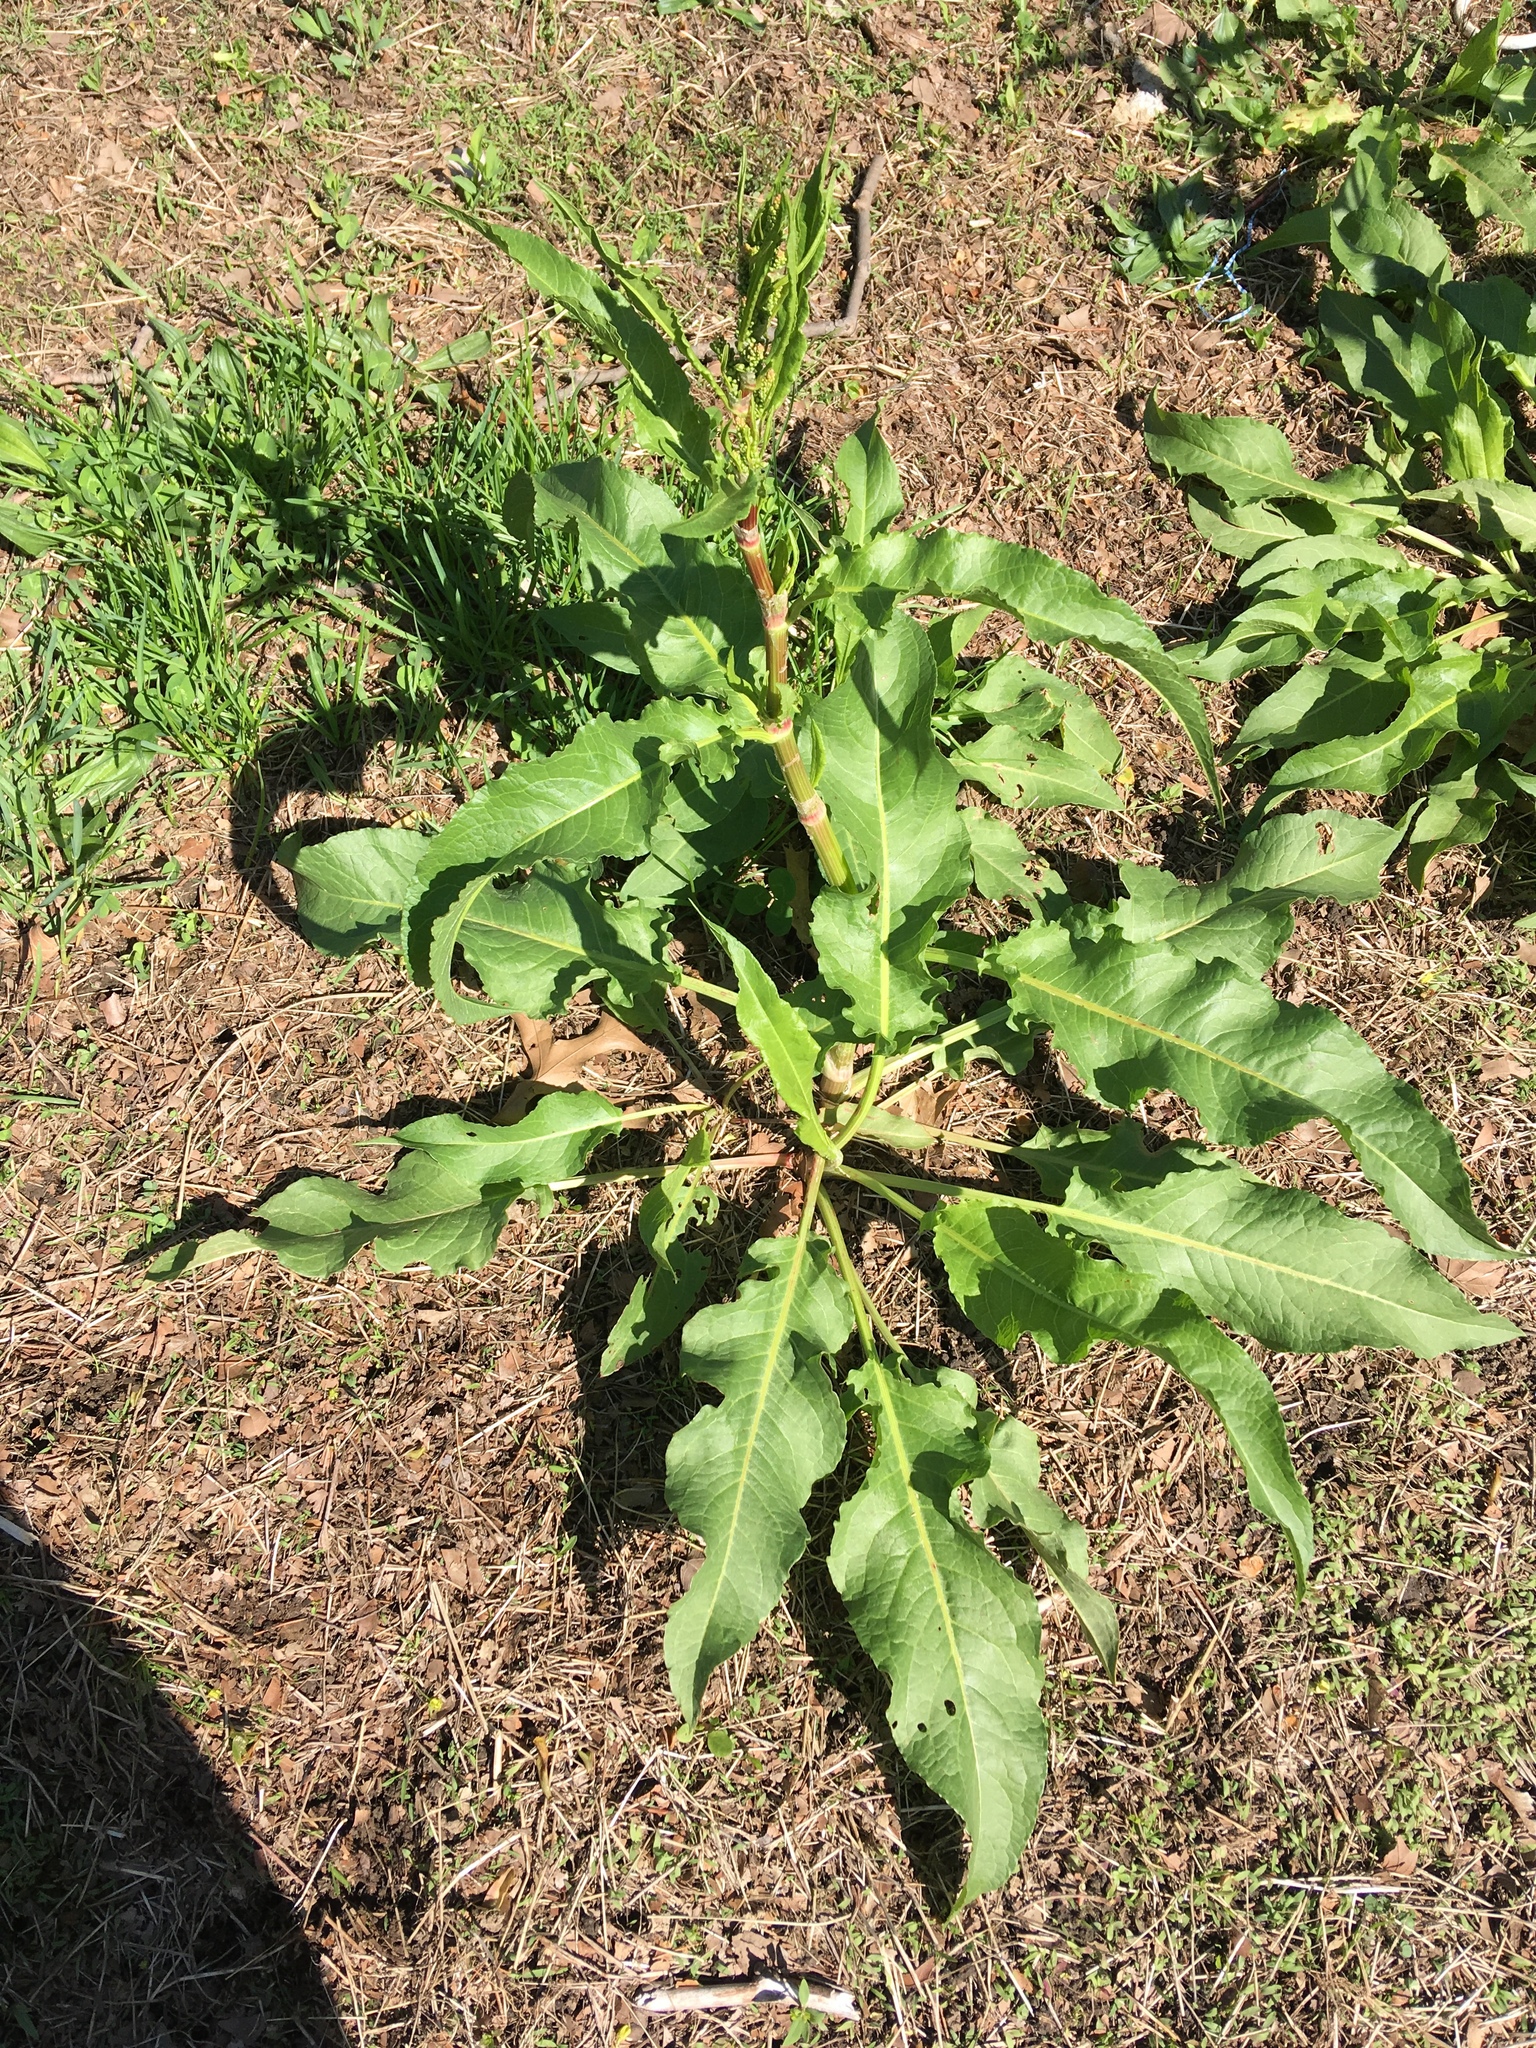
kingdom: Plantae
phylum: Tracheophyta
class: Magnoliopsida
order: Caryophyllales
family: Polygonaceae
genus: Rumex
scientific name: Rumex crispus
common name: Curled dock
